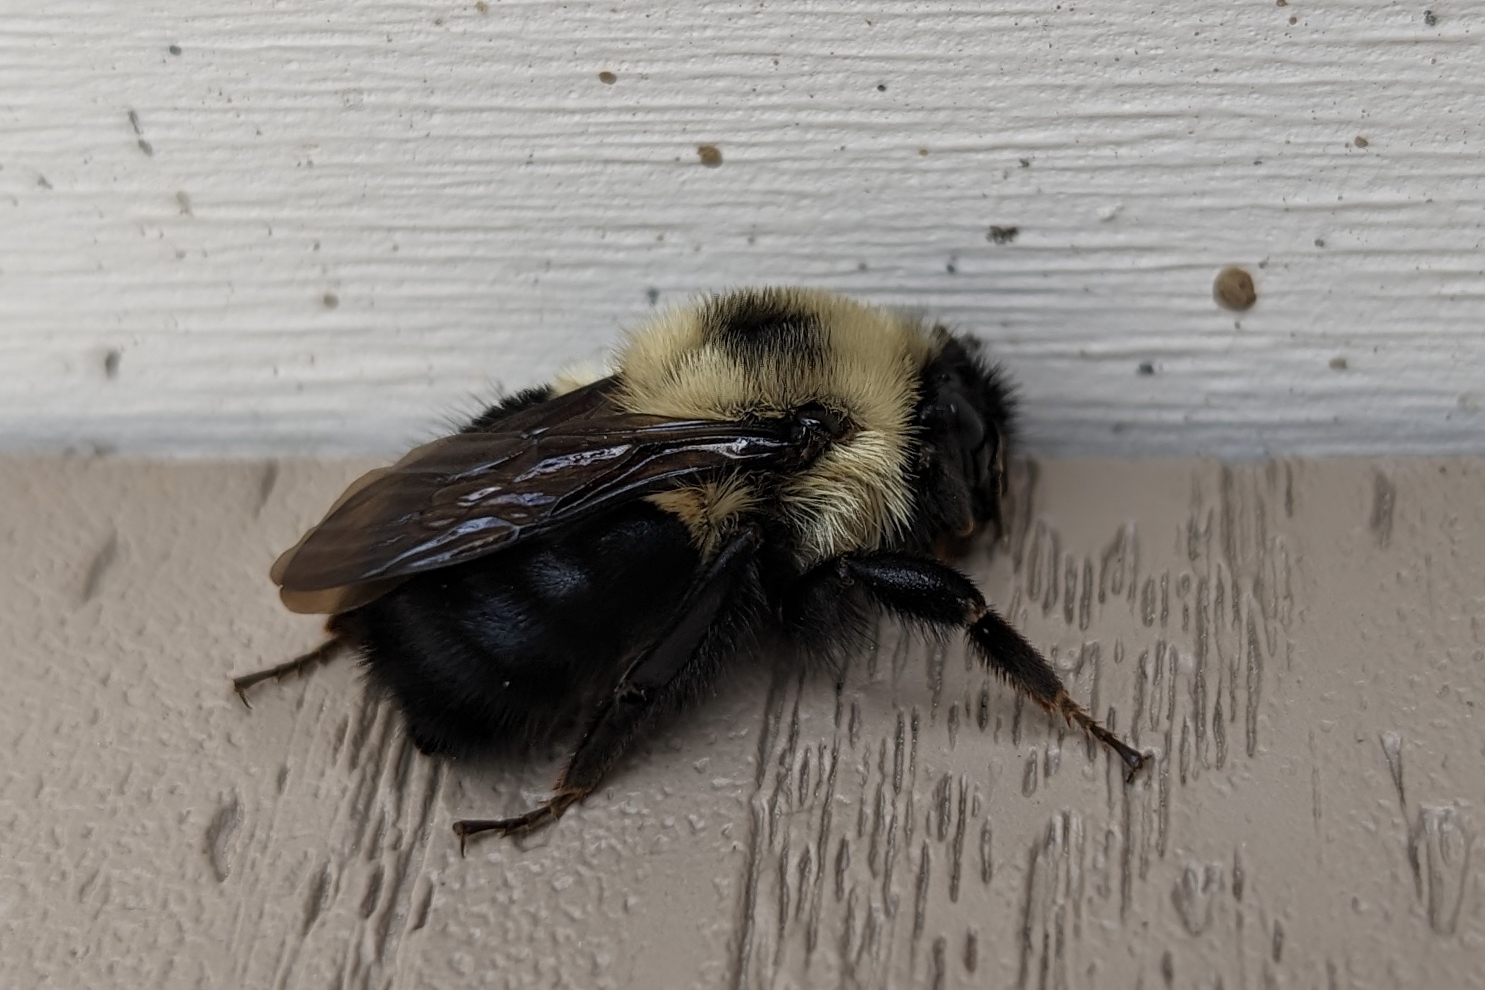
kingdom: Animalia
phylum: Arthropoda
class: Insecta
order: Hymenoptera
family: Apidae
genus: Bombus
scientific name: Bombus bimaculatus
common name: Two-spotted bumble bee
